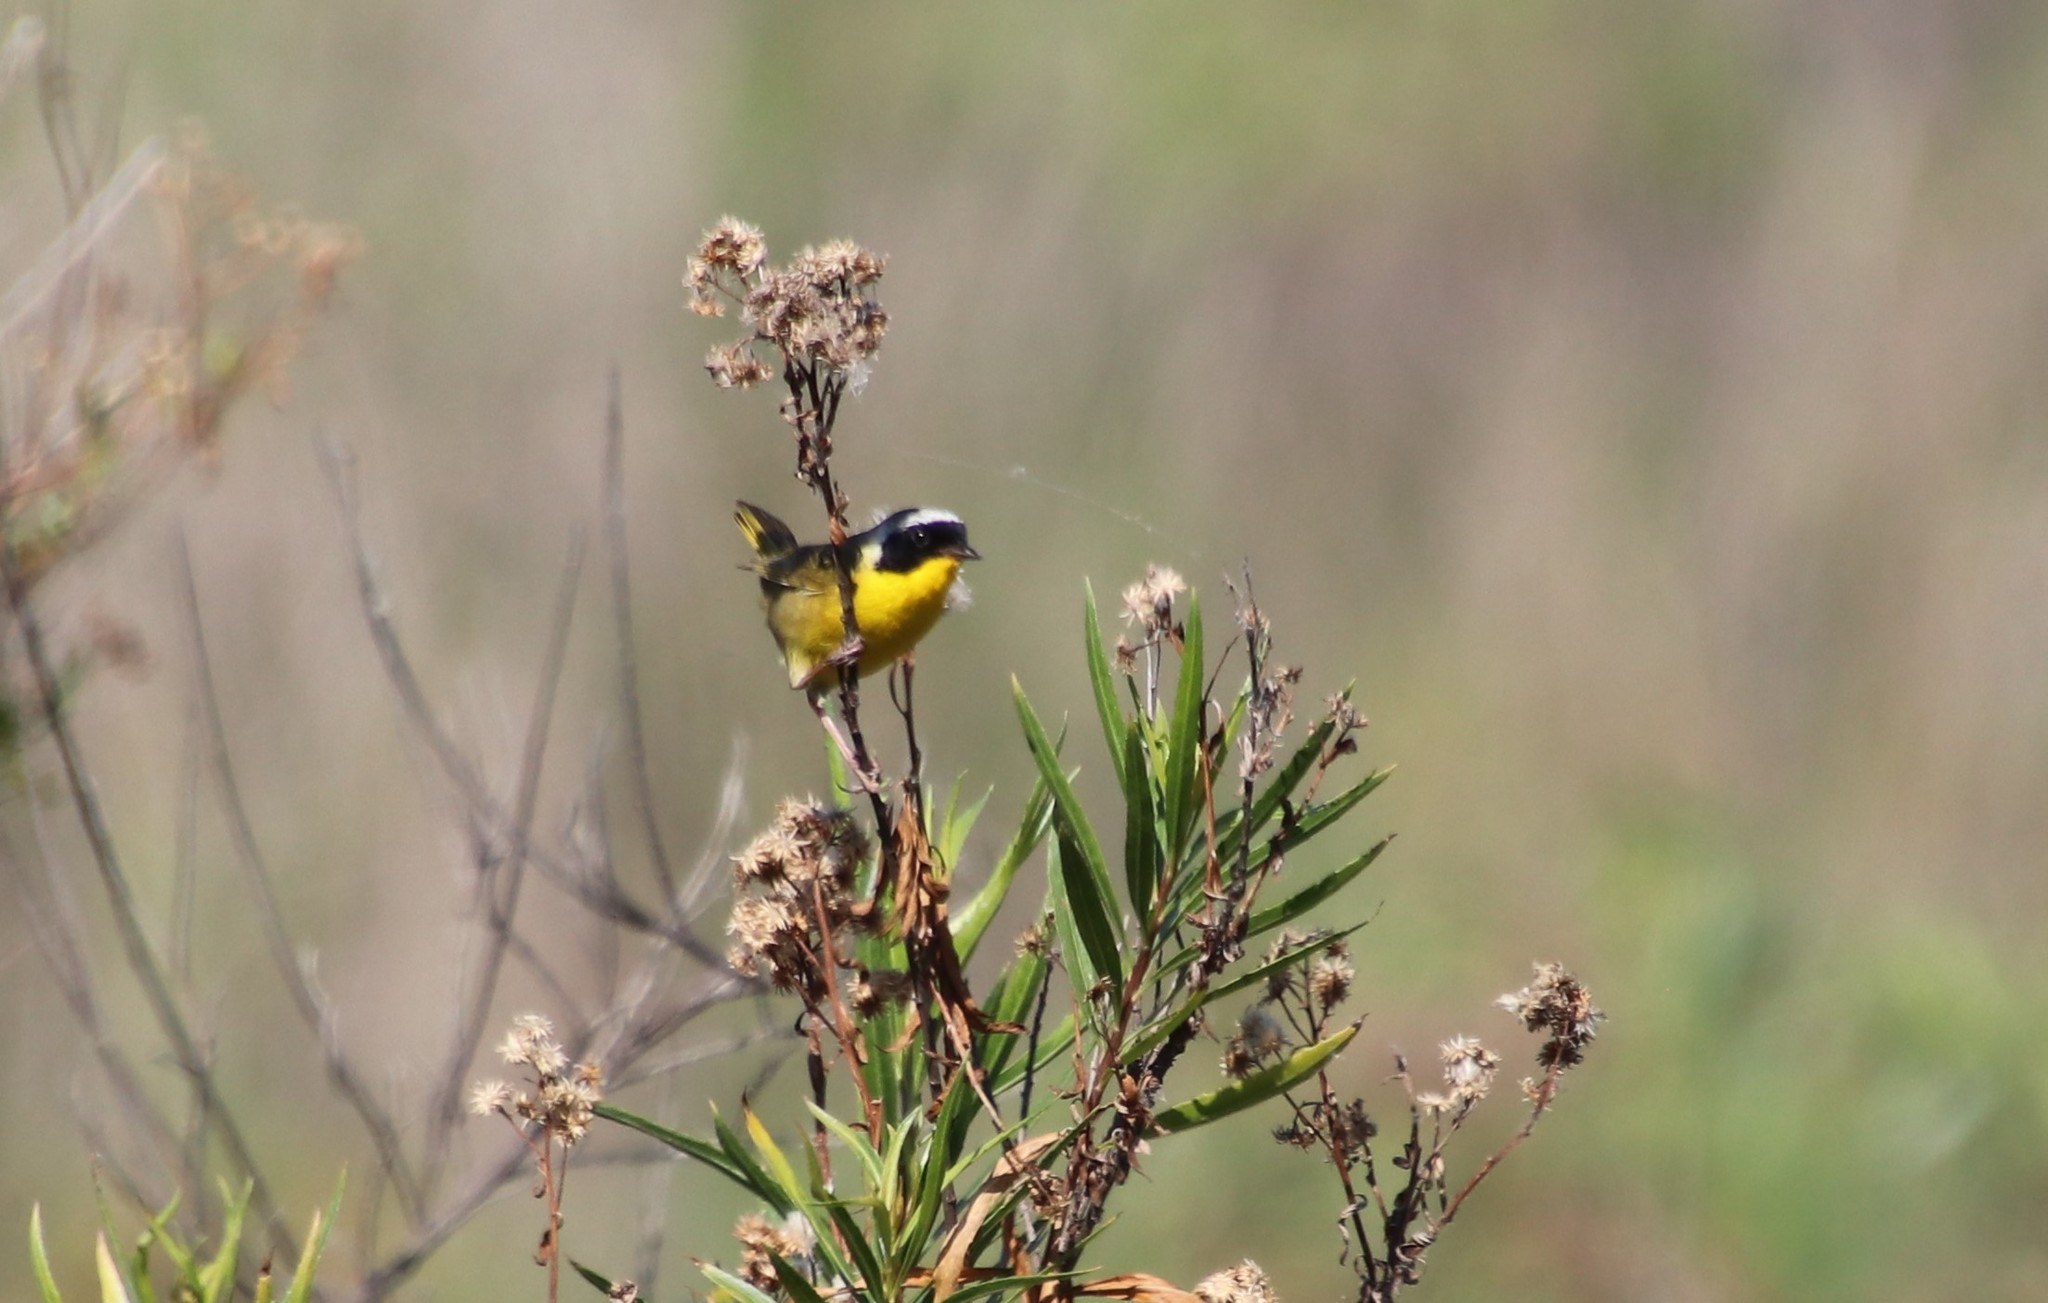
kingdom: Animalia
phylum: Chordata
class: Aves
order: Passeriformes
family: Parulidae
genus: Geothlypis
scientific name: Geothlypis trichas
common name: Common yellowthroat
